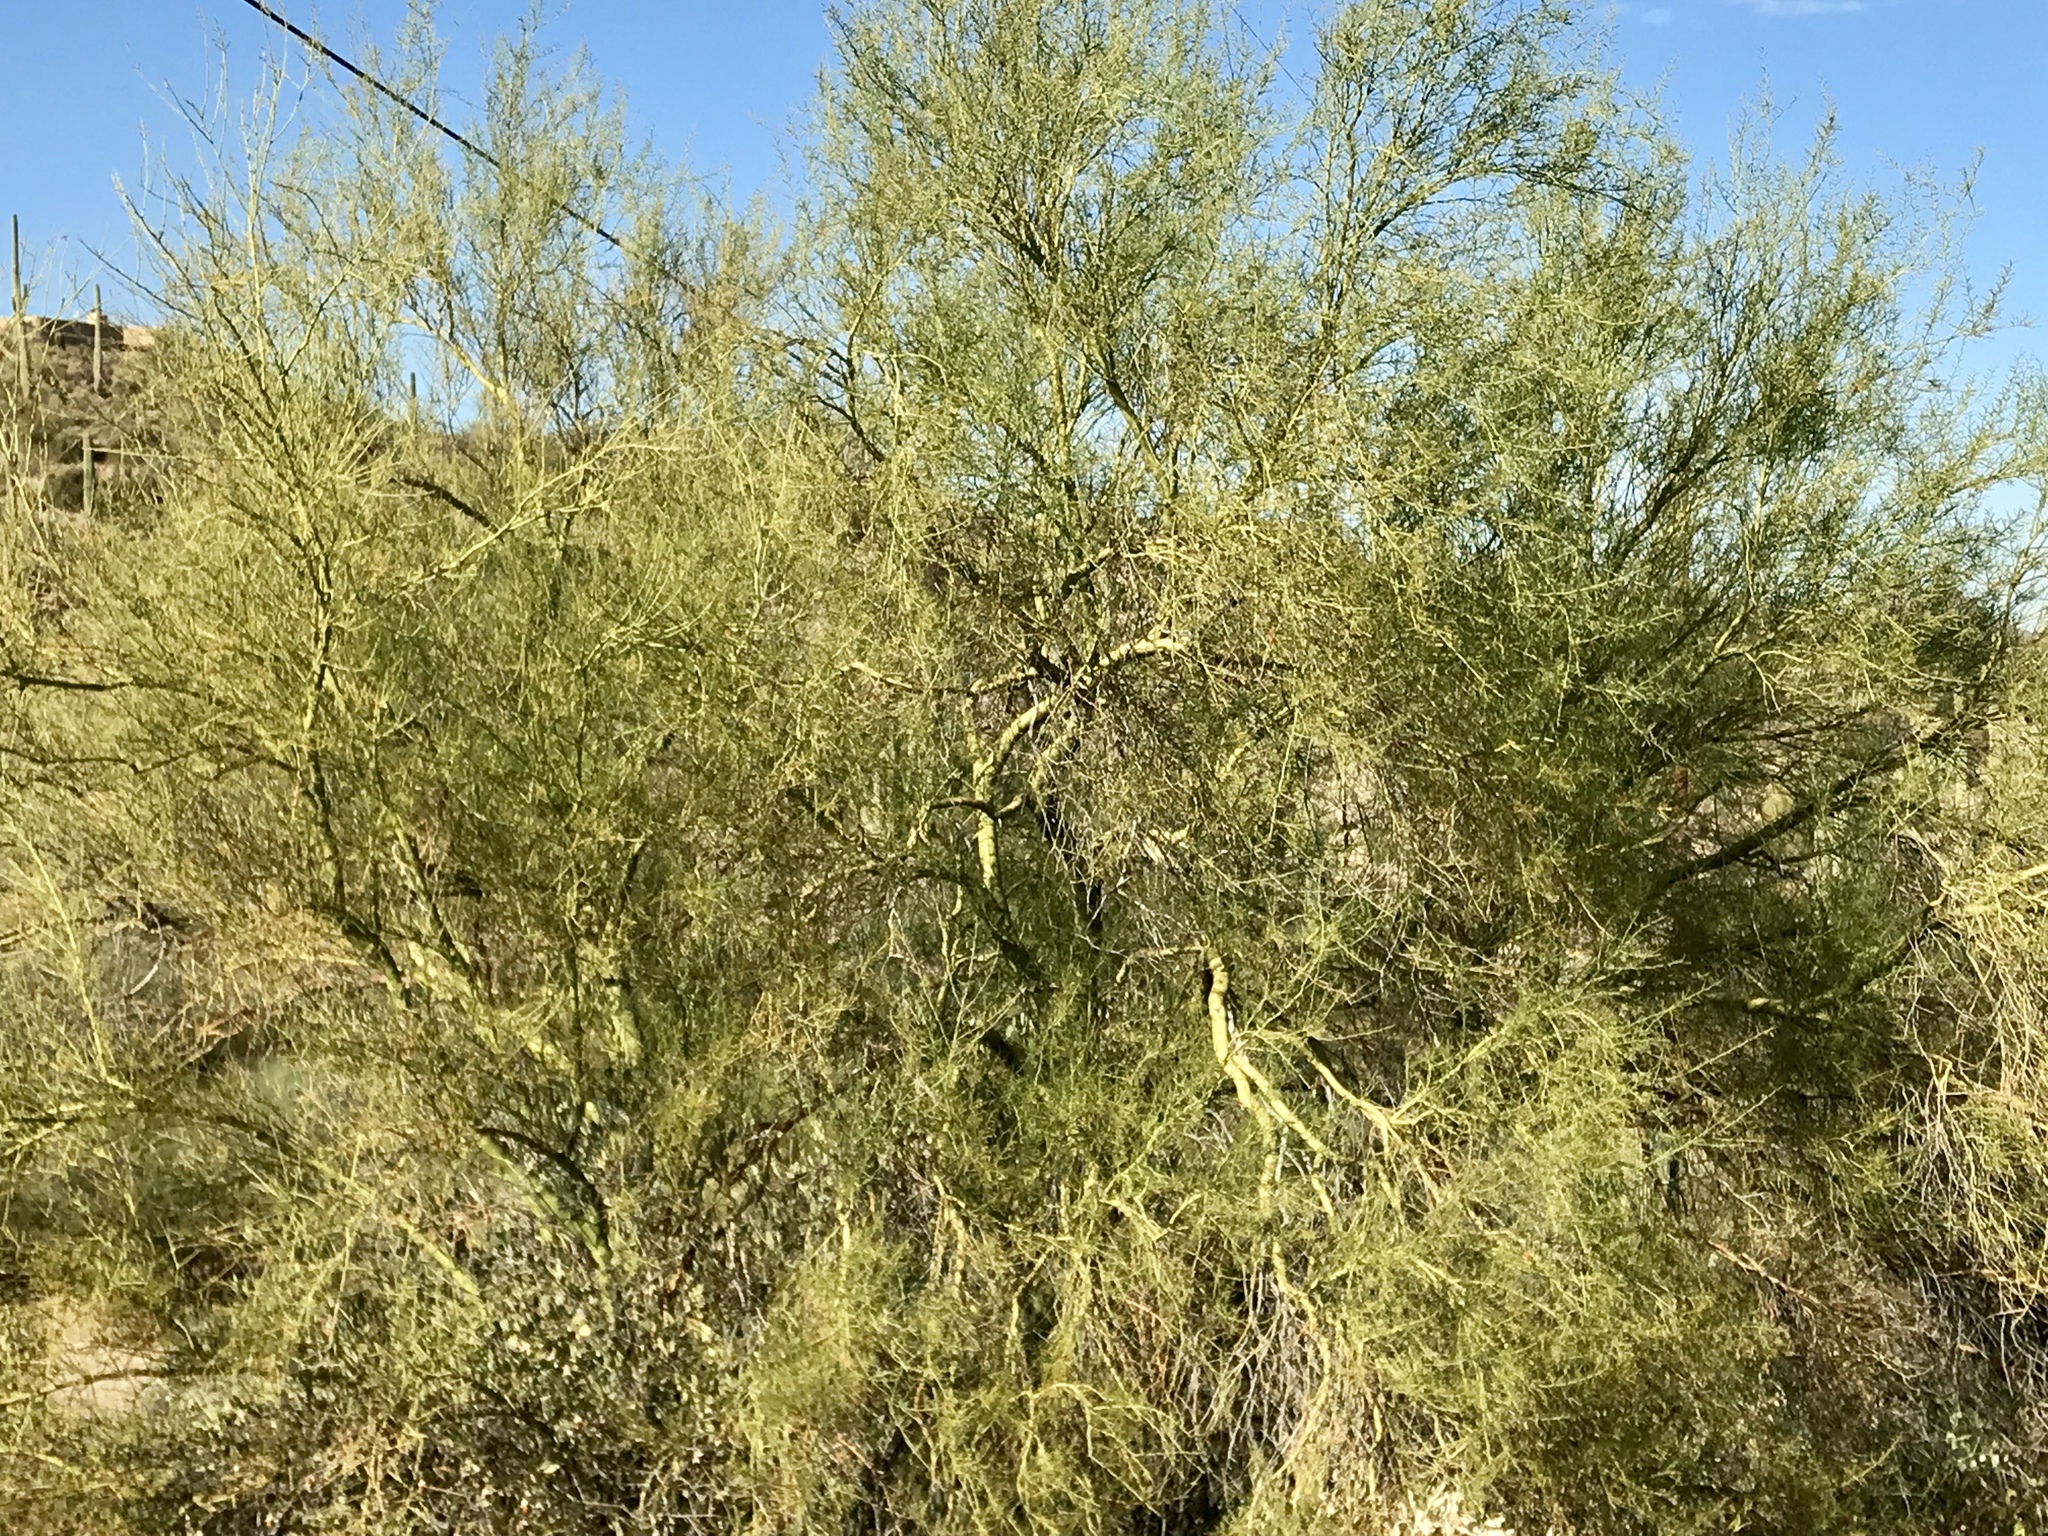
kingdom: Plantae
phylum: Tracheophyta
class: Magnoliopsida
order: Fabales
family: Fabaceae
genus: Parkinsonia
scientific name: Parkinsonia microphylla
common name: Yellow paloverde
